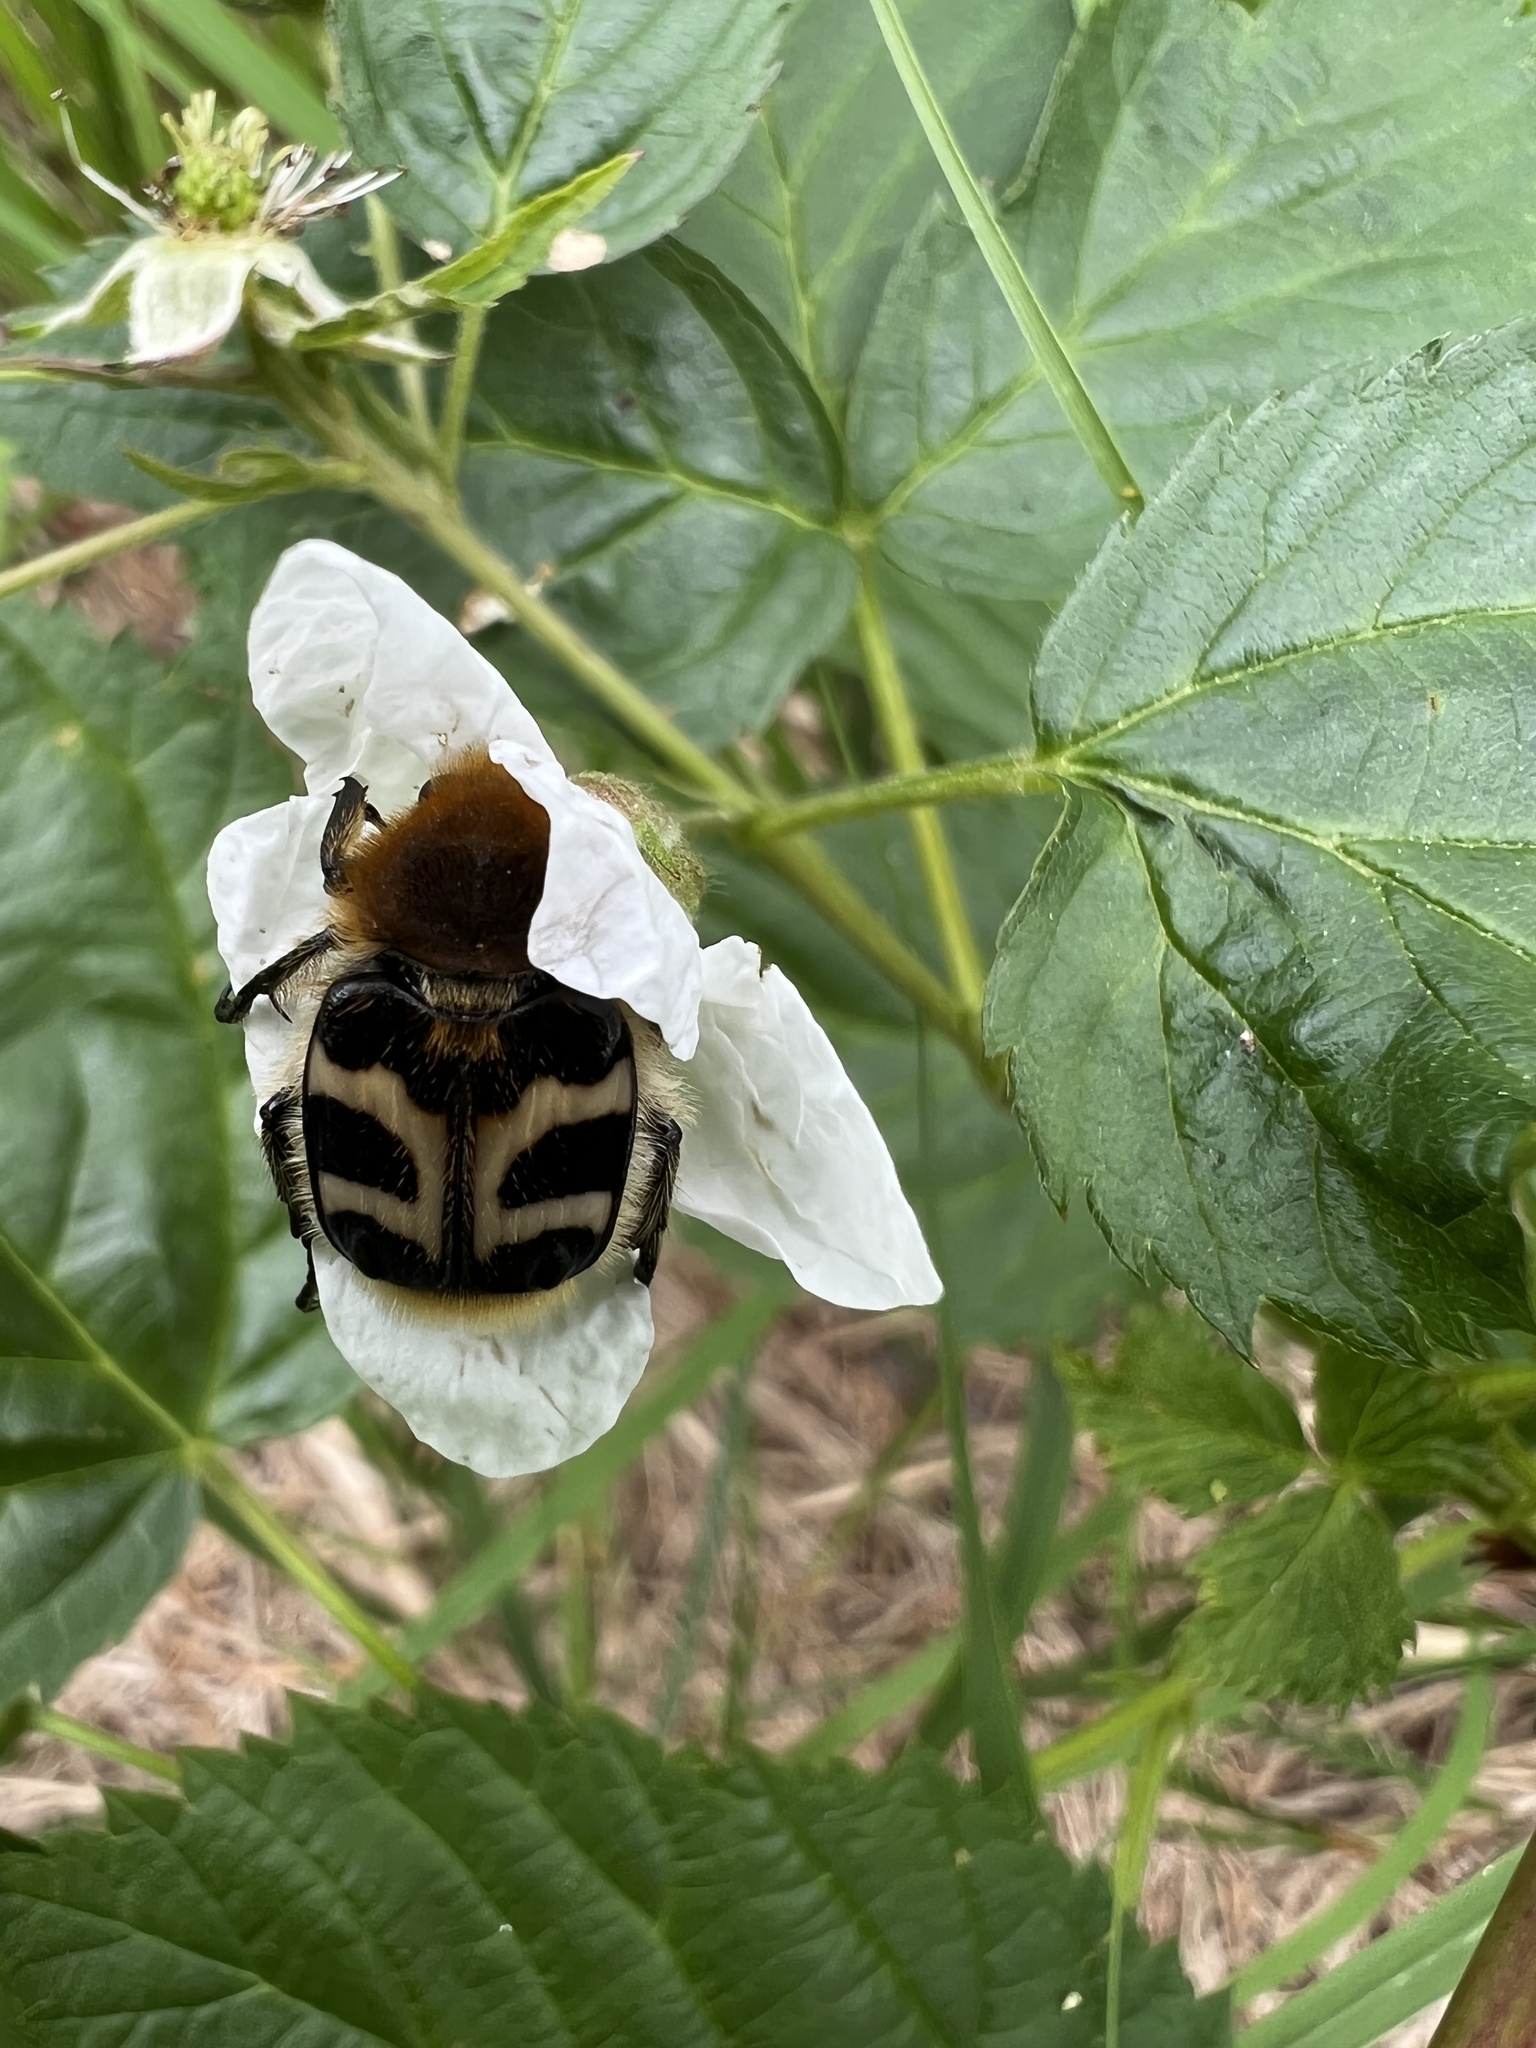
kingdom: Animalia
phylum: Arthropoda
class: Insecta
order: Coleoptera
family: Scarabaeidae
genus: Trichius
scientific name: Trichius fasciatus
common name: Bee beetle
